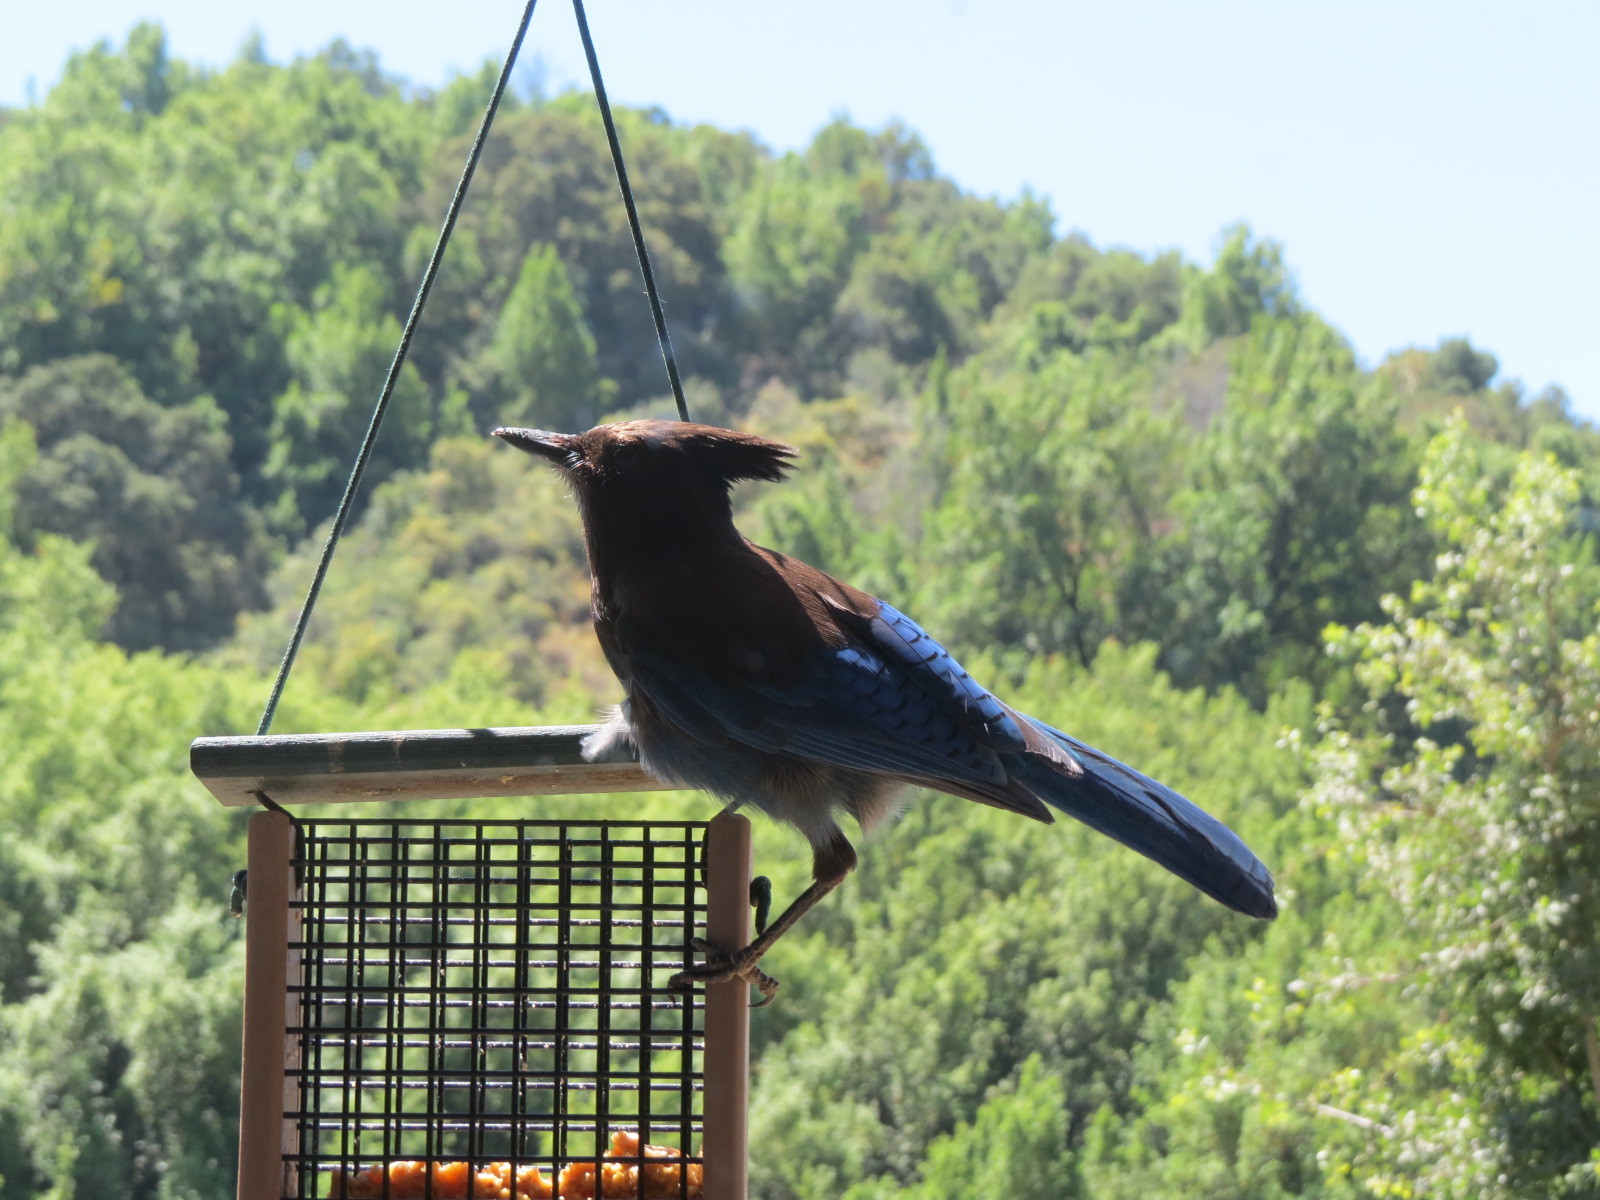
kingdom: Animalia
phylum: Chordata
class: Aves
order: Passeriformes
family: Corvidae
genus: Cyanocitta
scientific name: Cyanocitta stelleri
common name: Steller's jay
